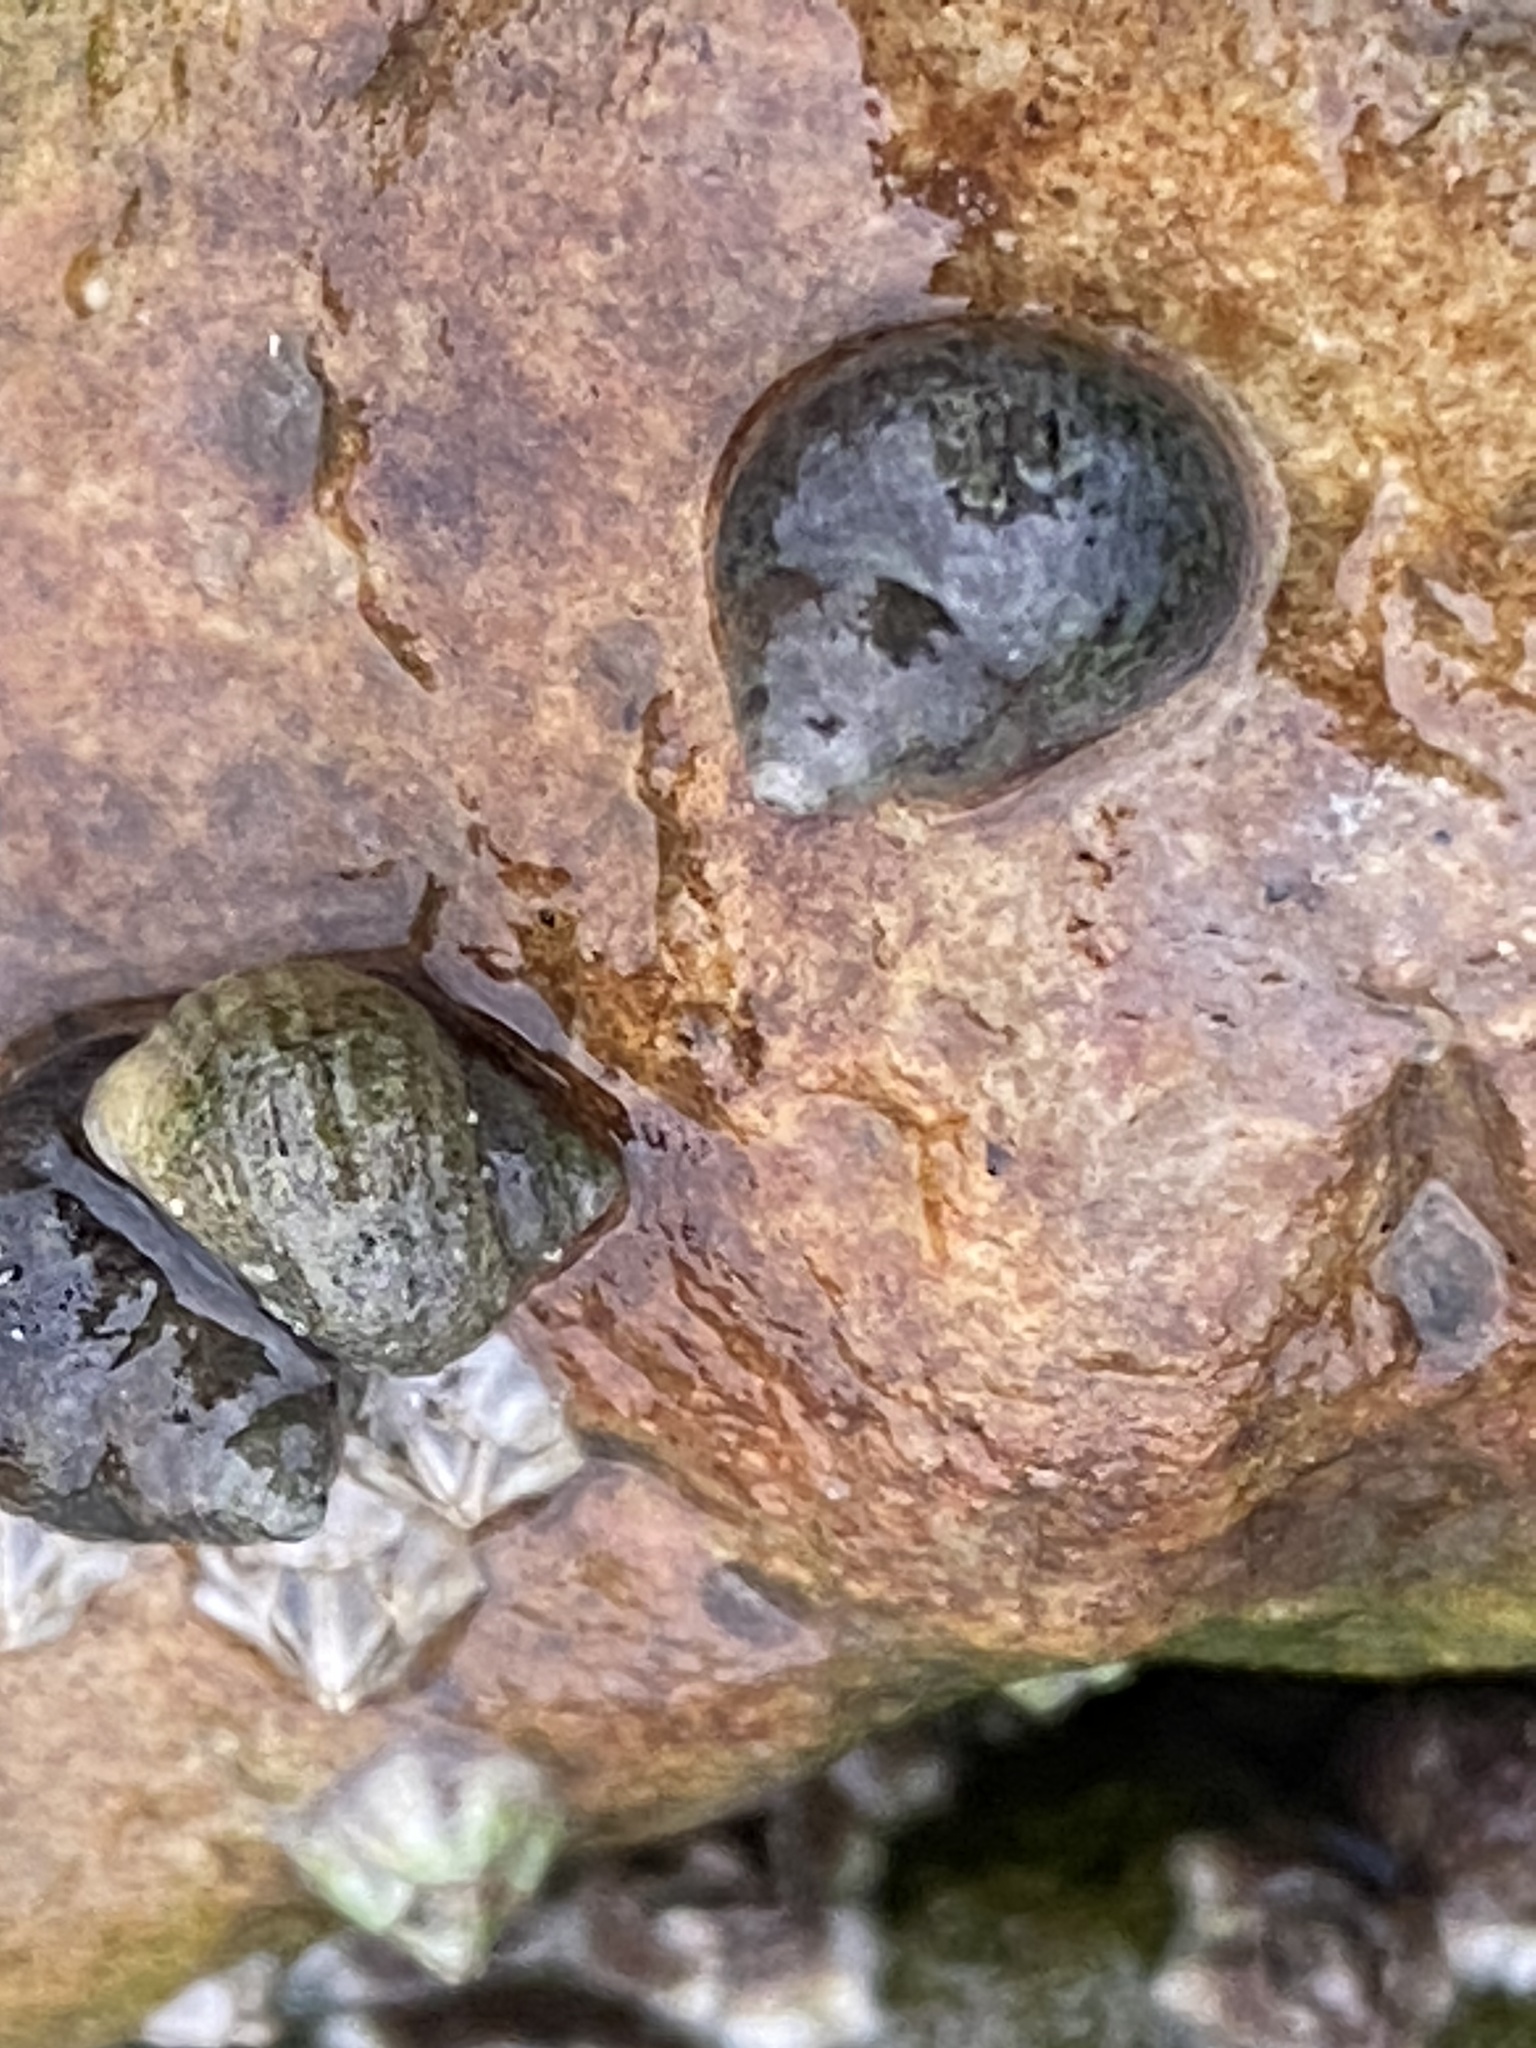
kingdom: Animalia
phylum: Mollusca
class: Gastropoda
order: Littorinimorpha
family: Littorinidae
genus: Littorina
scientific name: Littorina littorea
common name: Common periwinkle
